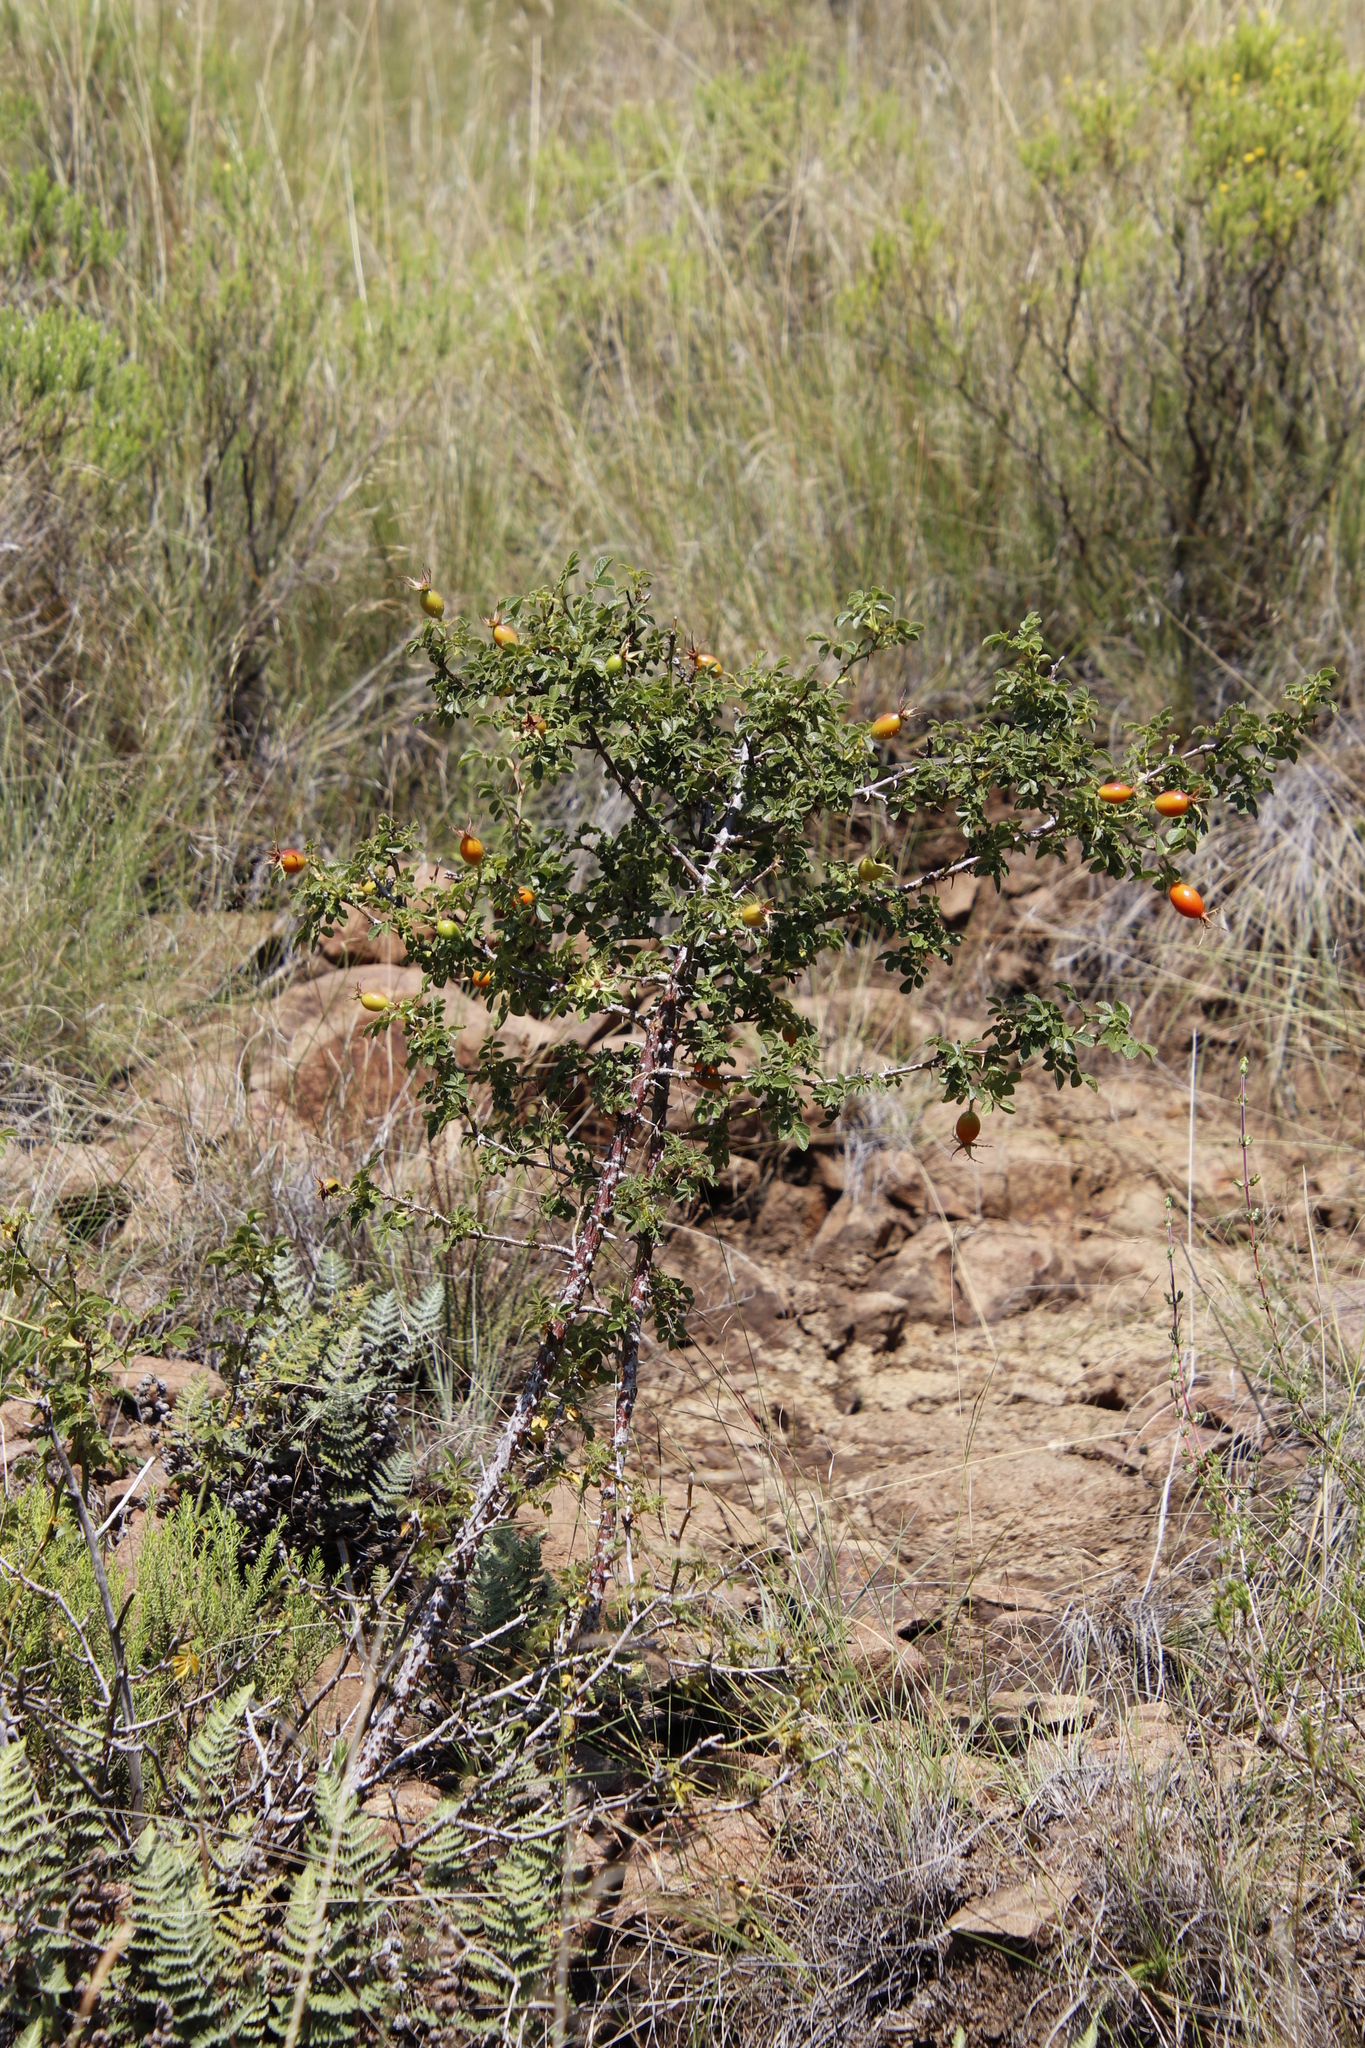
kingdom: Plantae
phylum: Tracheophyta
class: Magnoliopsida
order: Rosales
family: Rosaceae
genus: Rosa
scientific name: Rosa rubiginosa
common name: Sweet-briar
